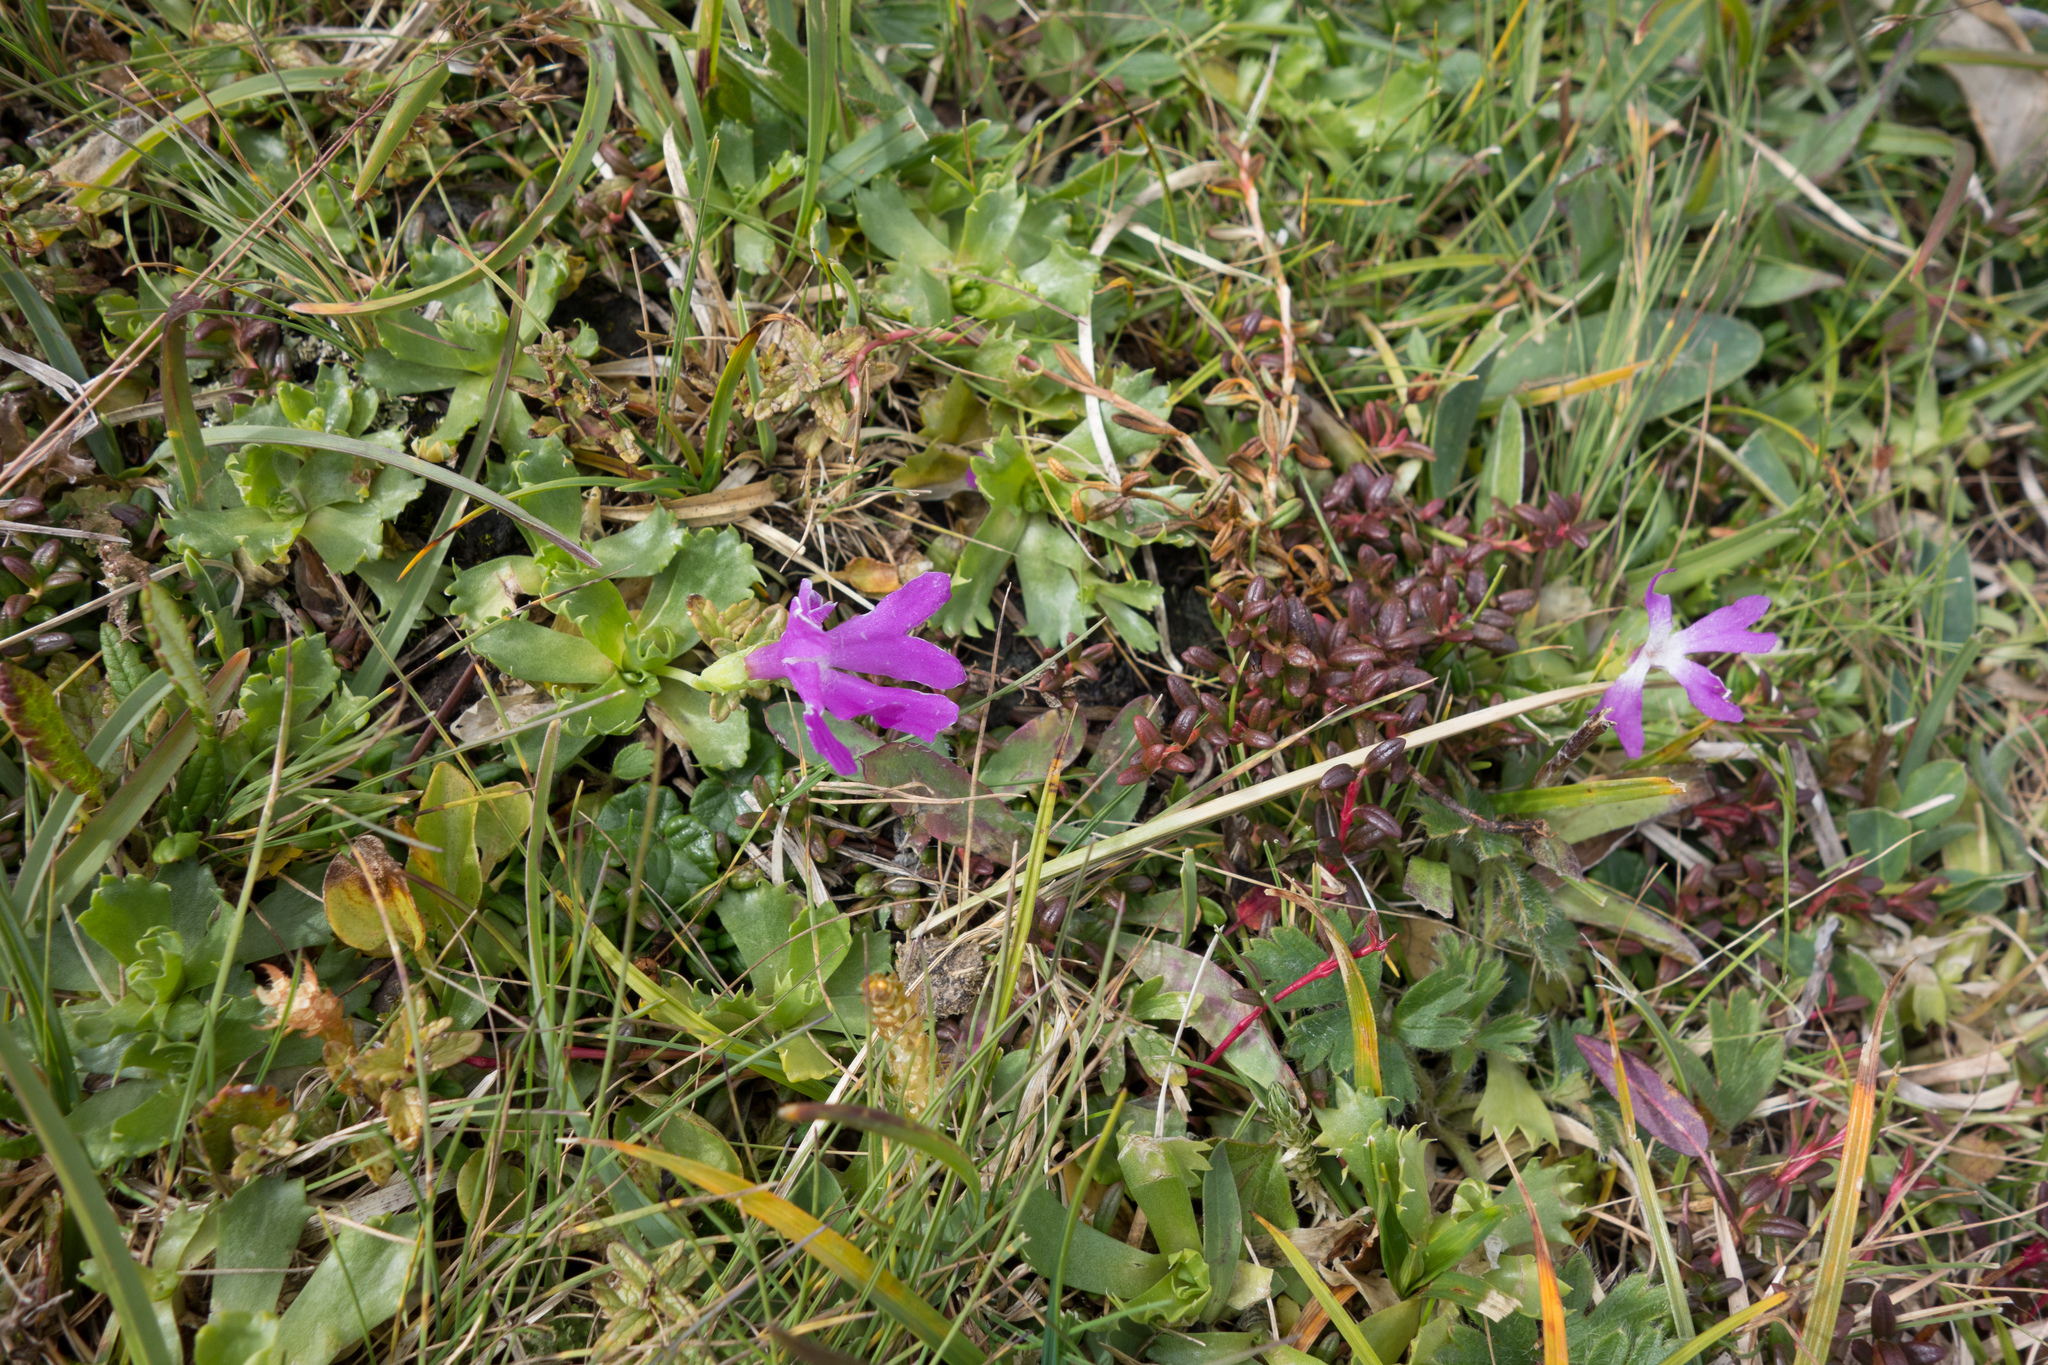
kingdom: Plantae
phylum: Tracheophyta
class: Magnoliopsida
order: Ericales
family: Primulaceae
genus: Primula
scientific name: Primula minima
